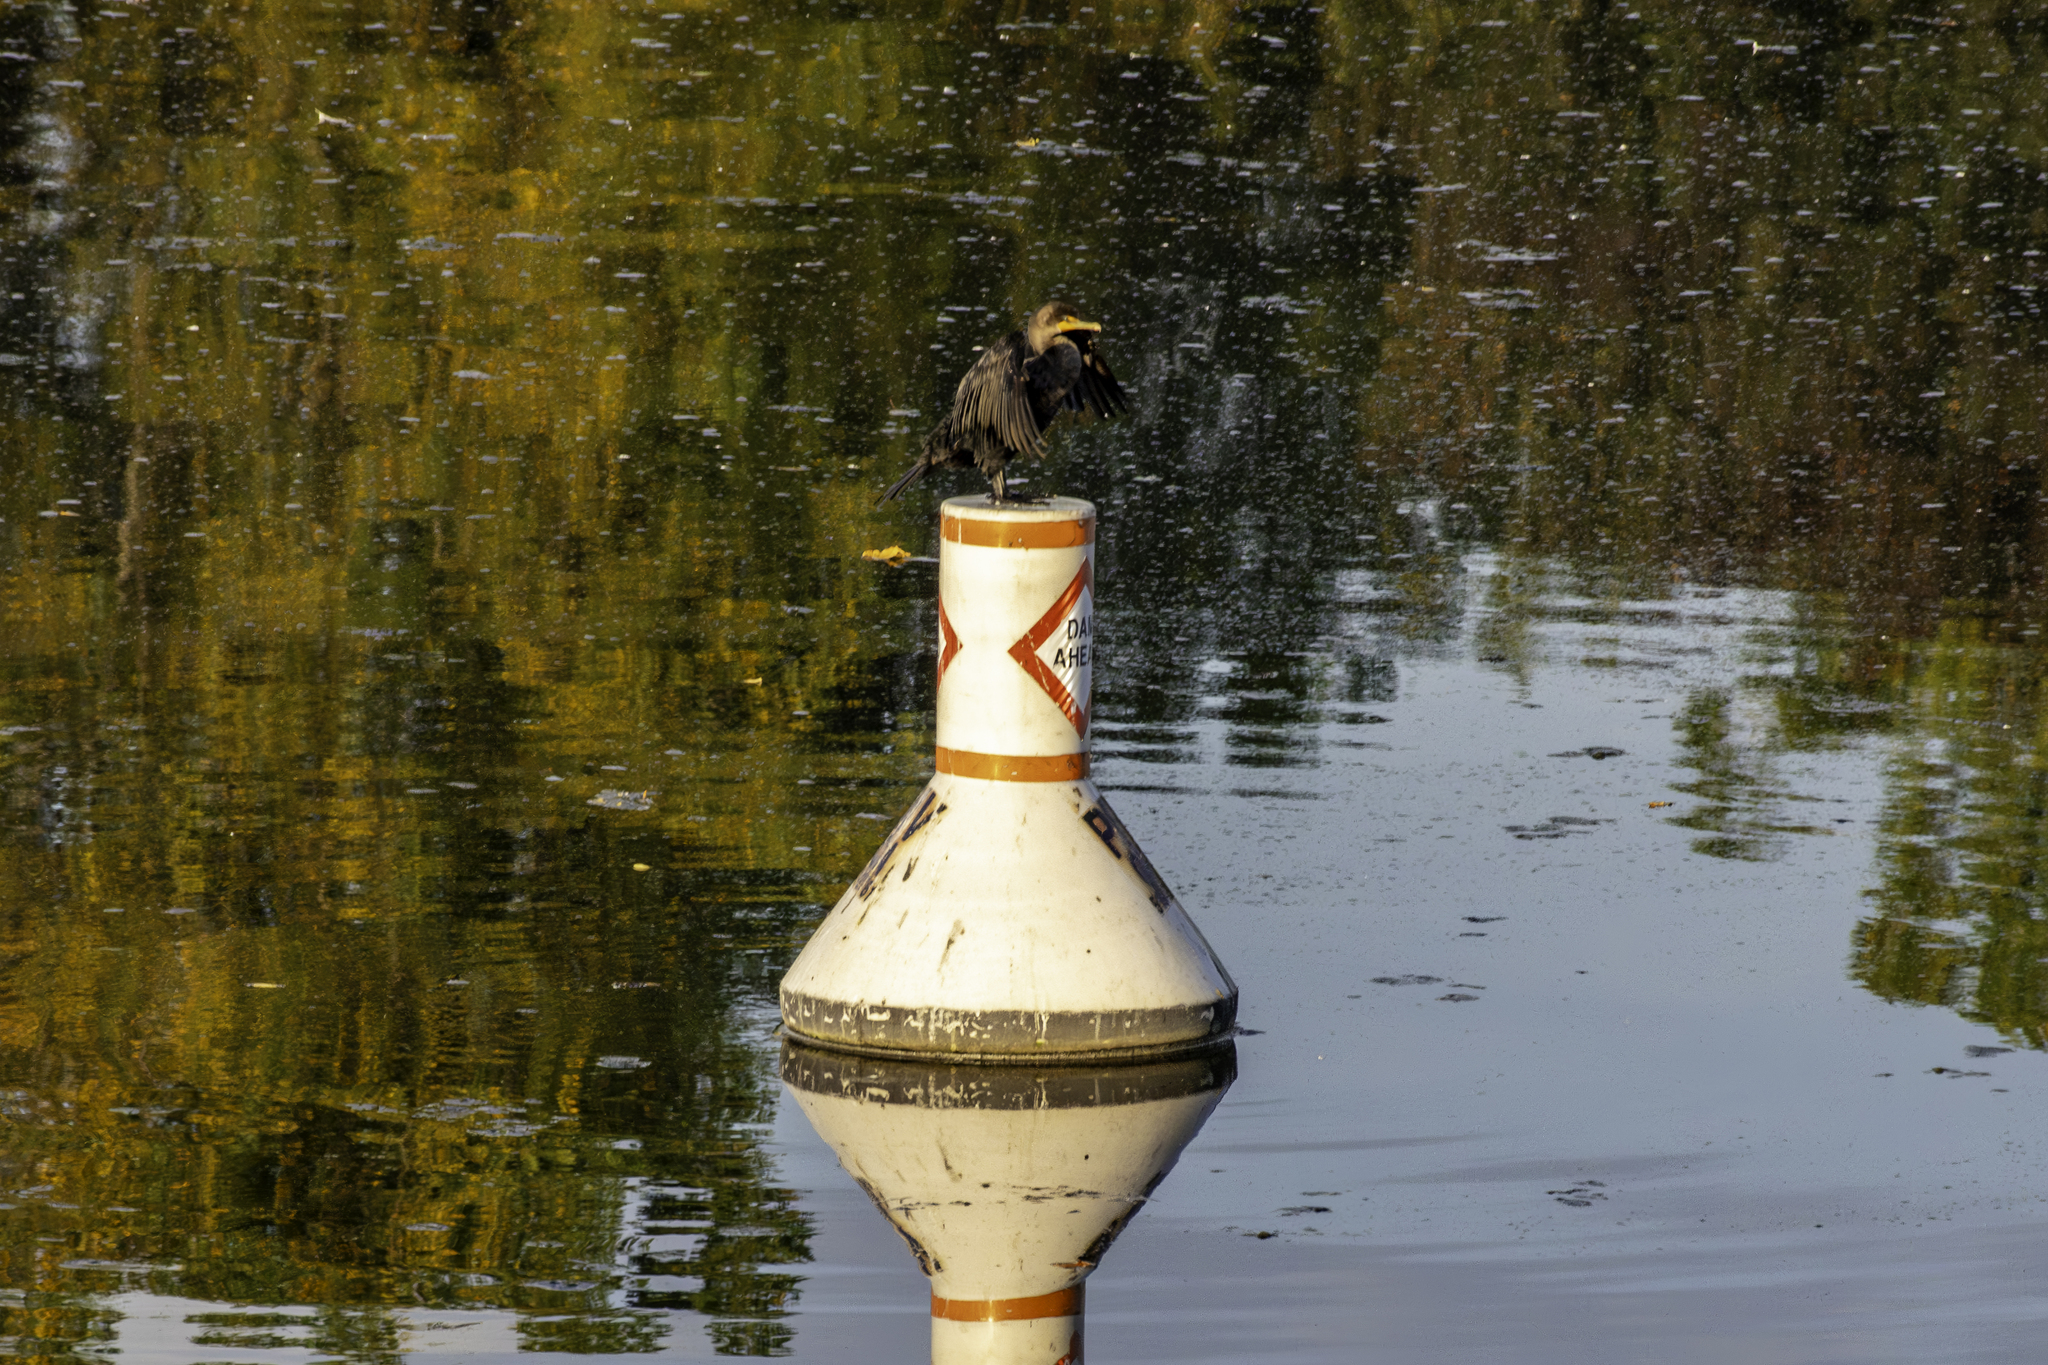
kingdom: Animalia
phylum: Chordata
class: Aves
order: Suliformes
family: Phalacrocoracidae
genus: Phalacrocorax
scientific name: Phalacrocorax auritus
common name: Double-crested cormorant
